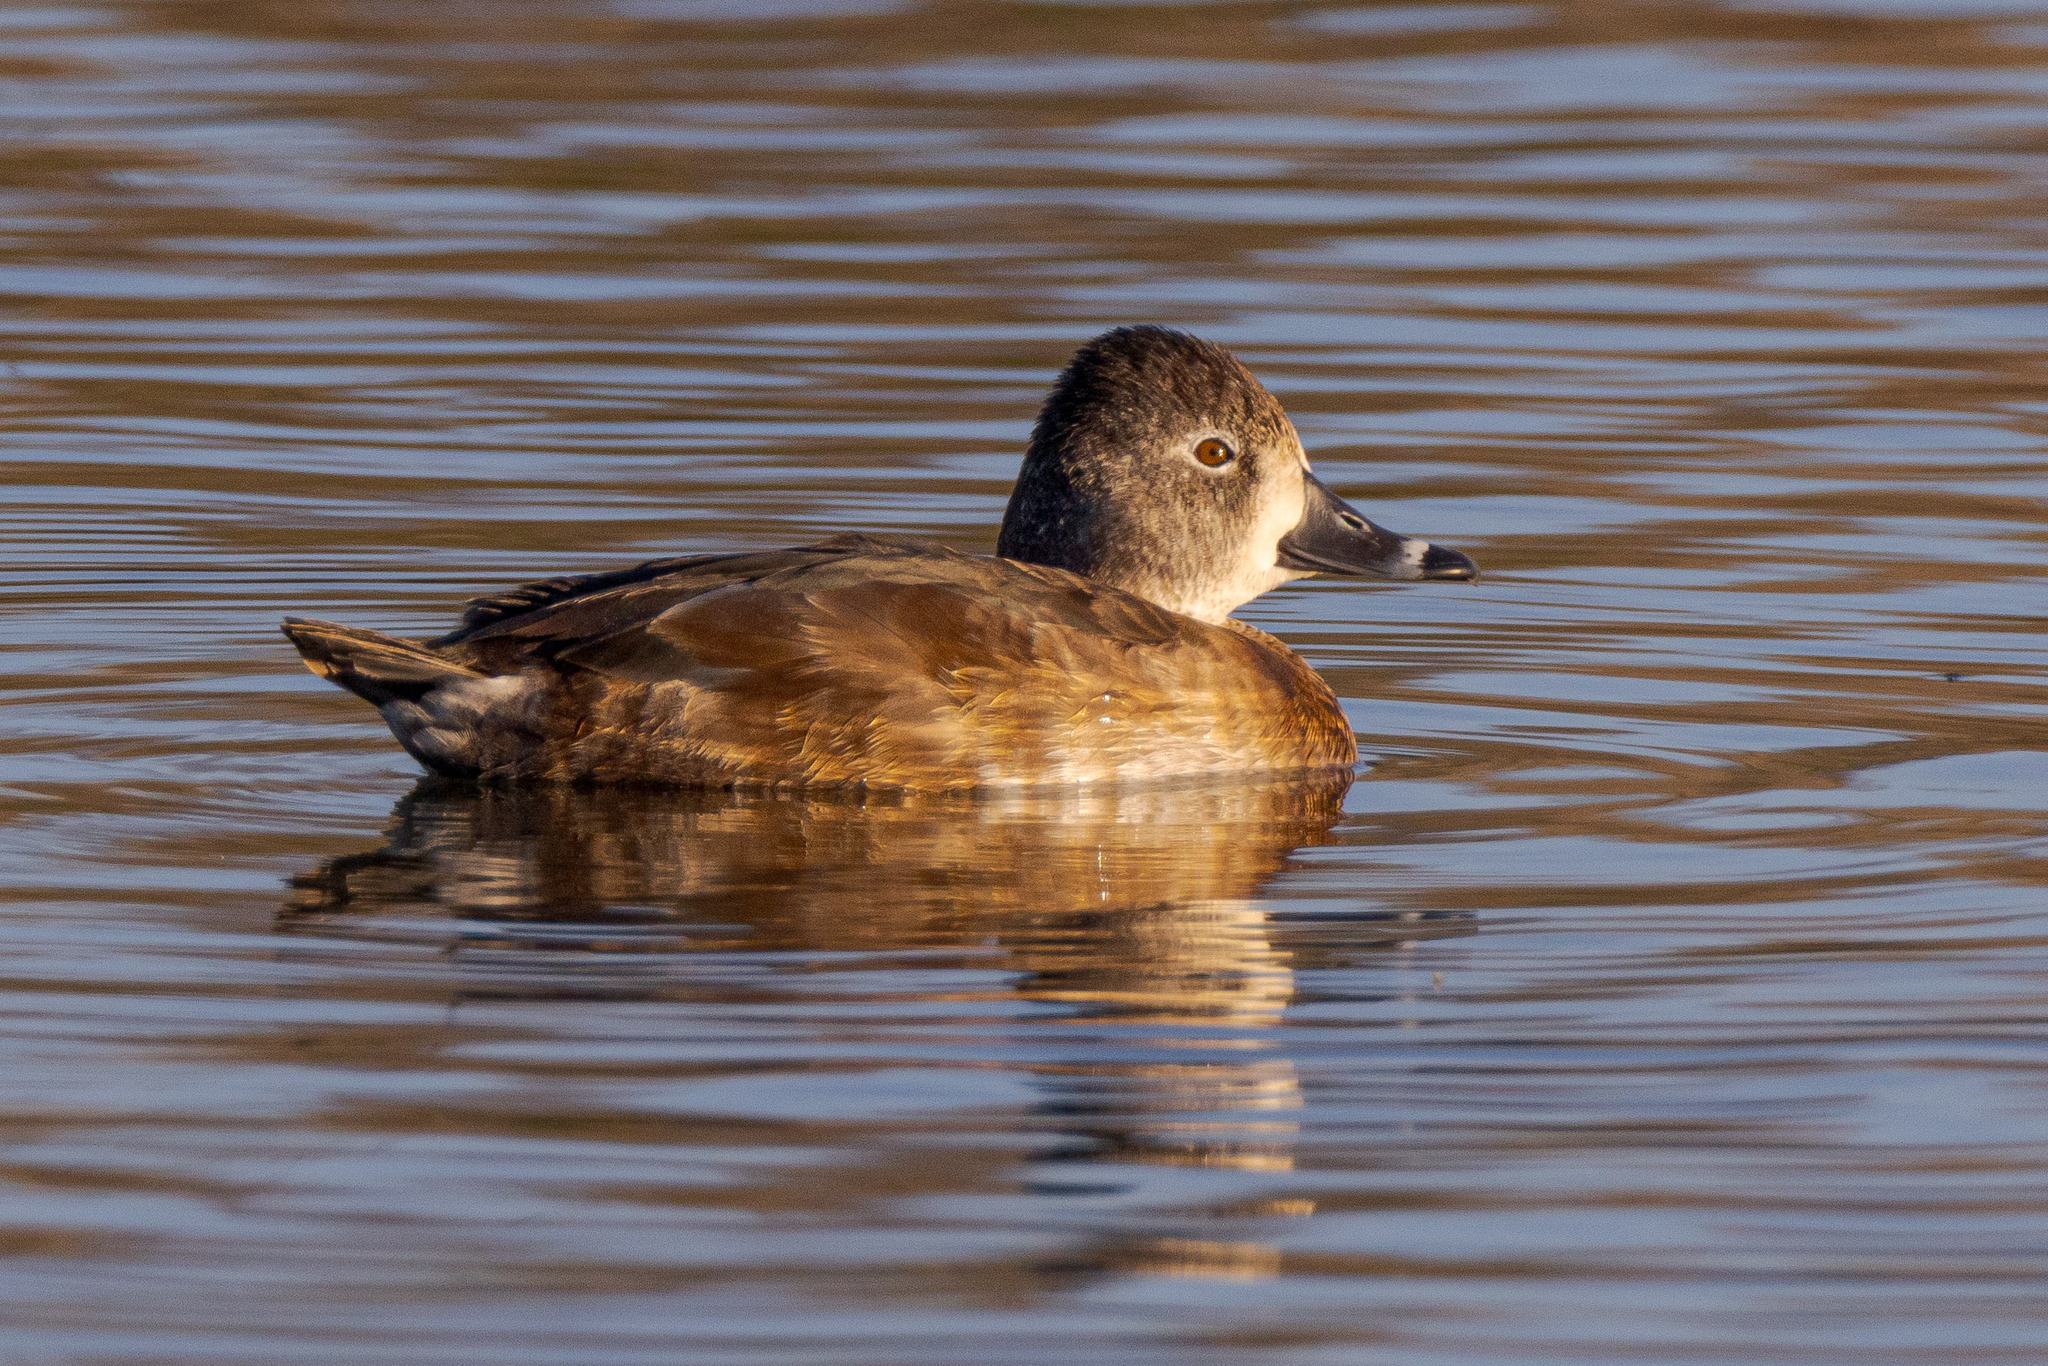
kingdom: Animalia
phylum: Chordata
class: Aves
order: Anseriformes
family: Anatidae
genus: Aythya
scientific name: Aythya collaris
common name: Ring-necked duck
